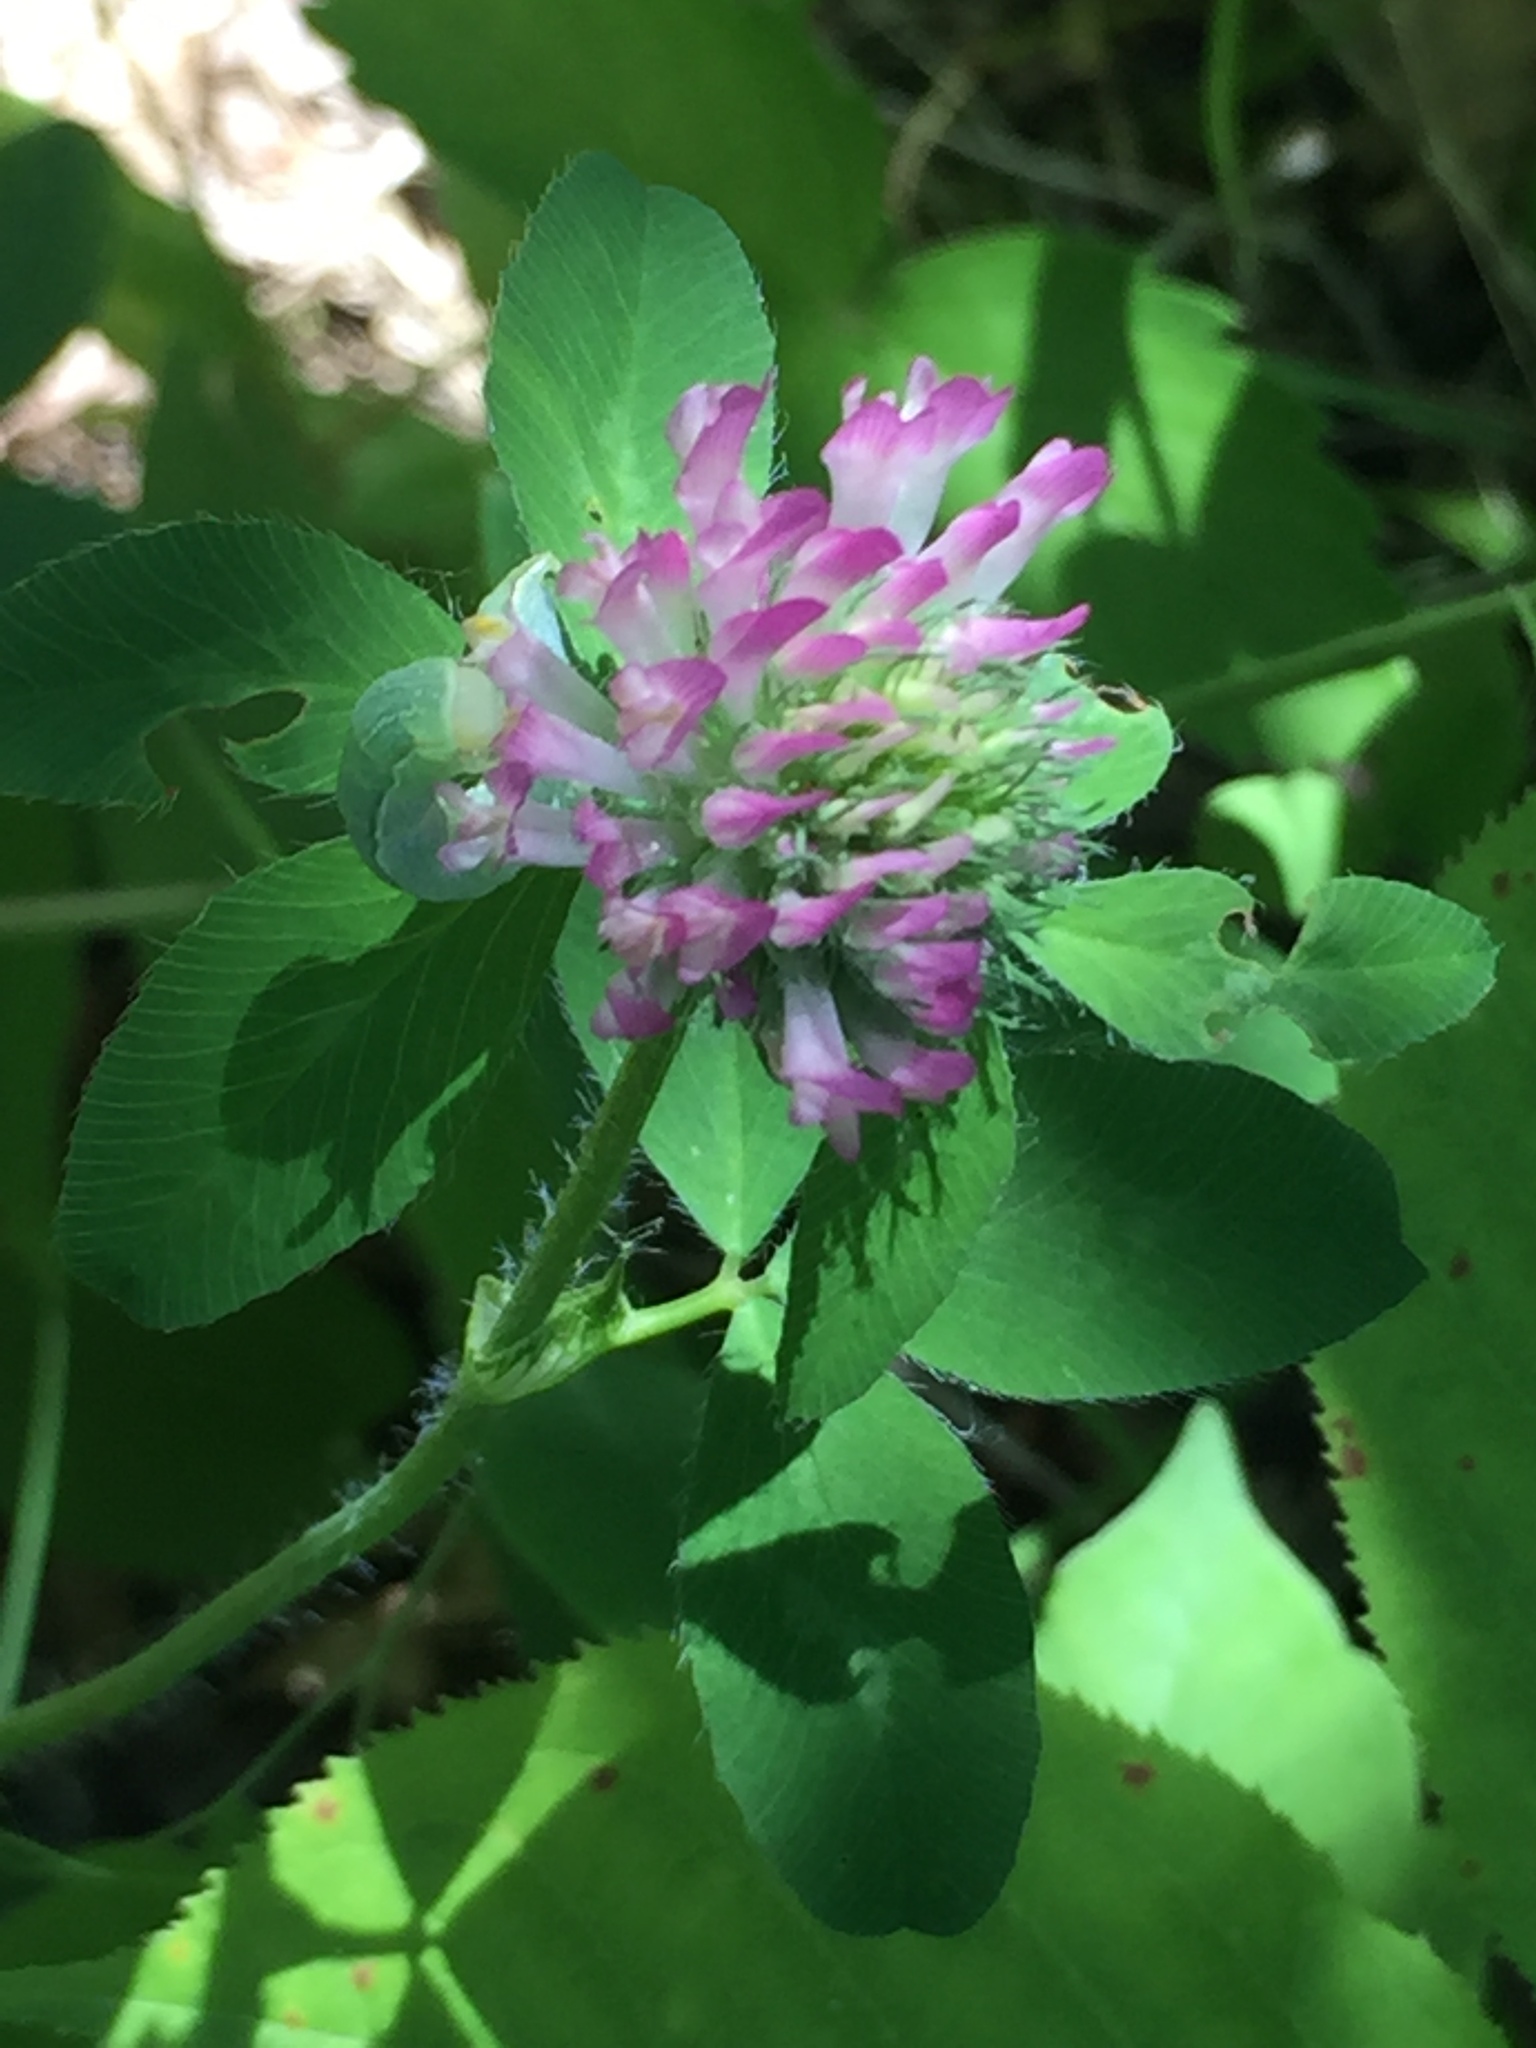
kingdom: Plantae
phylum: Tracheophyta
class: Magnoliopsida
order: Fabales
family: Fabaceae
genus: Trifolium
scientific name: Trifolium pratense
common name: Red clover
